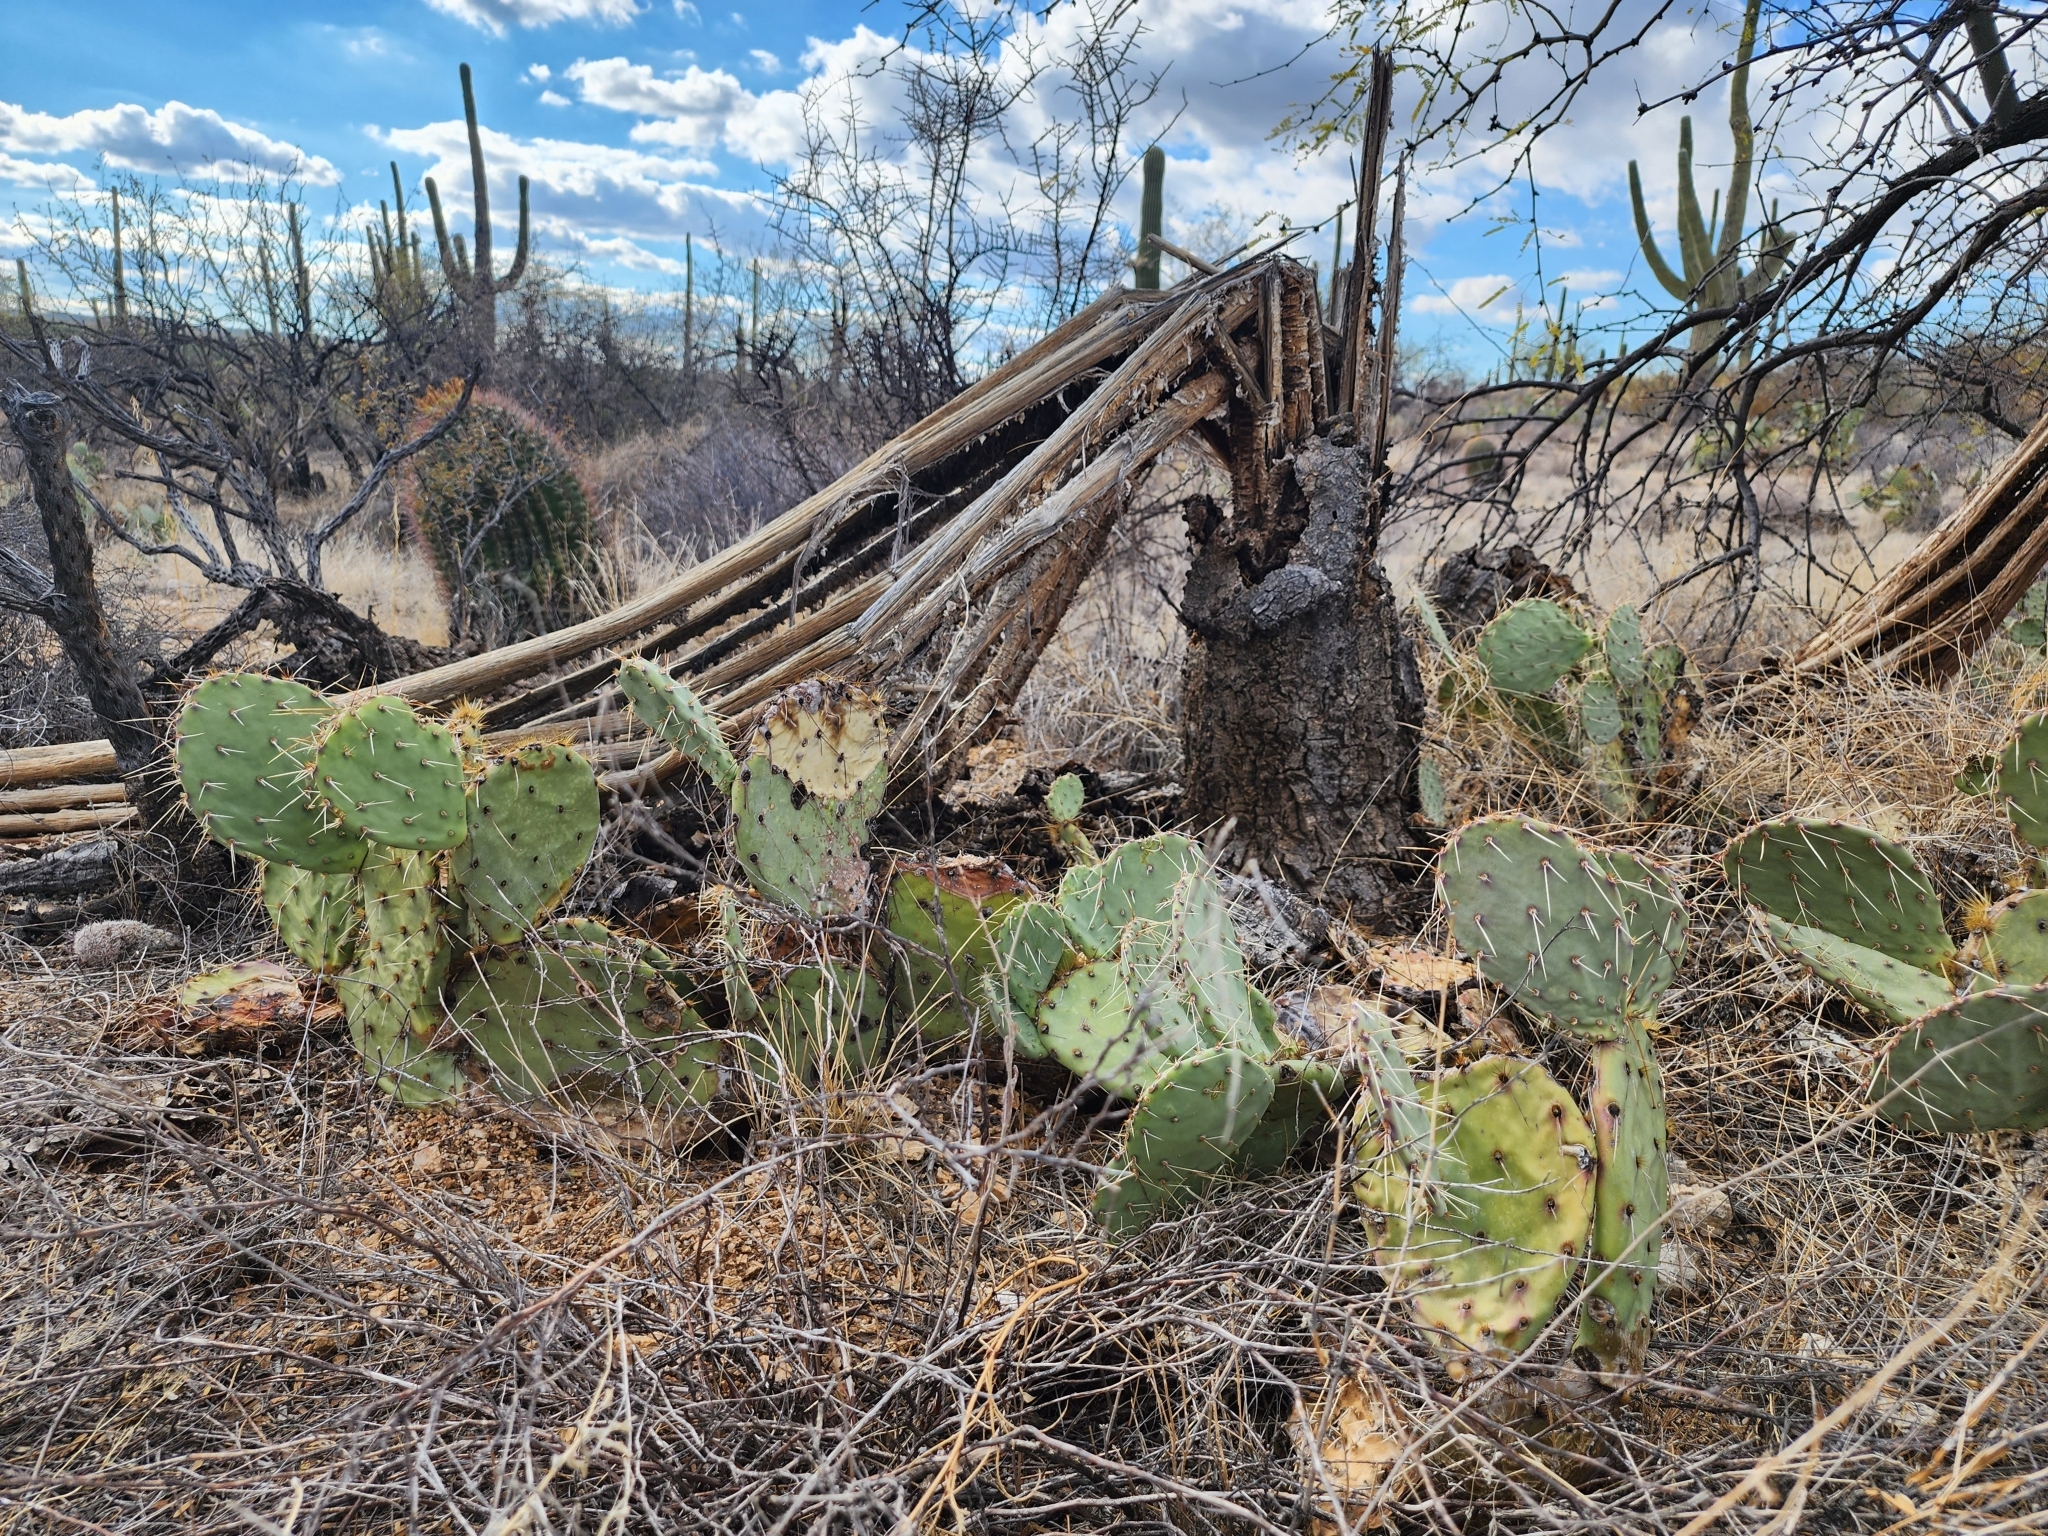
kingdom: Plantae
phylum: Tracheophyta
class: Magnoliopsida
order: Caryophyllales
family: Cactaceae
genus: Opuntia
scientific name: Opuntia engelmannii
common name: Cactus-apple
